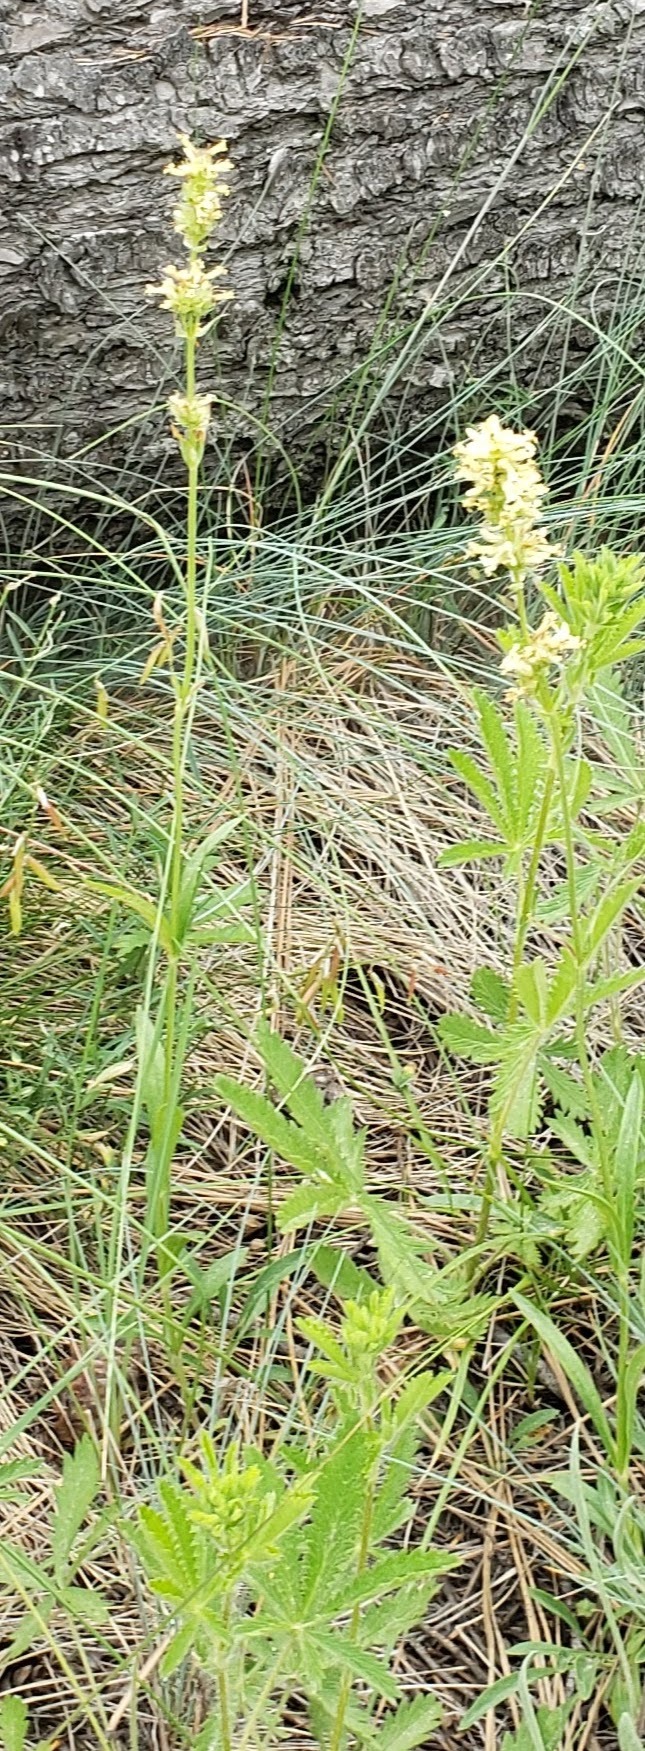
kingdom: Plantae
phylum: Tracheophyta
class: Magnoliopsida
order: Lamiales
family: Plantaginaceae
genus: Penstemon
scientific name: Penstemon confertus
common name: Lesser yellow beardtongue
